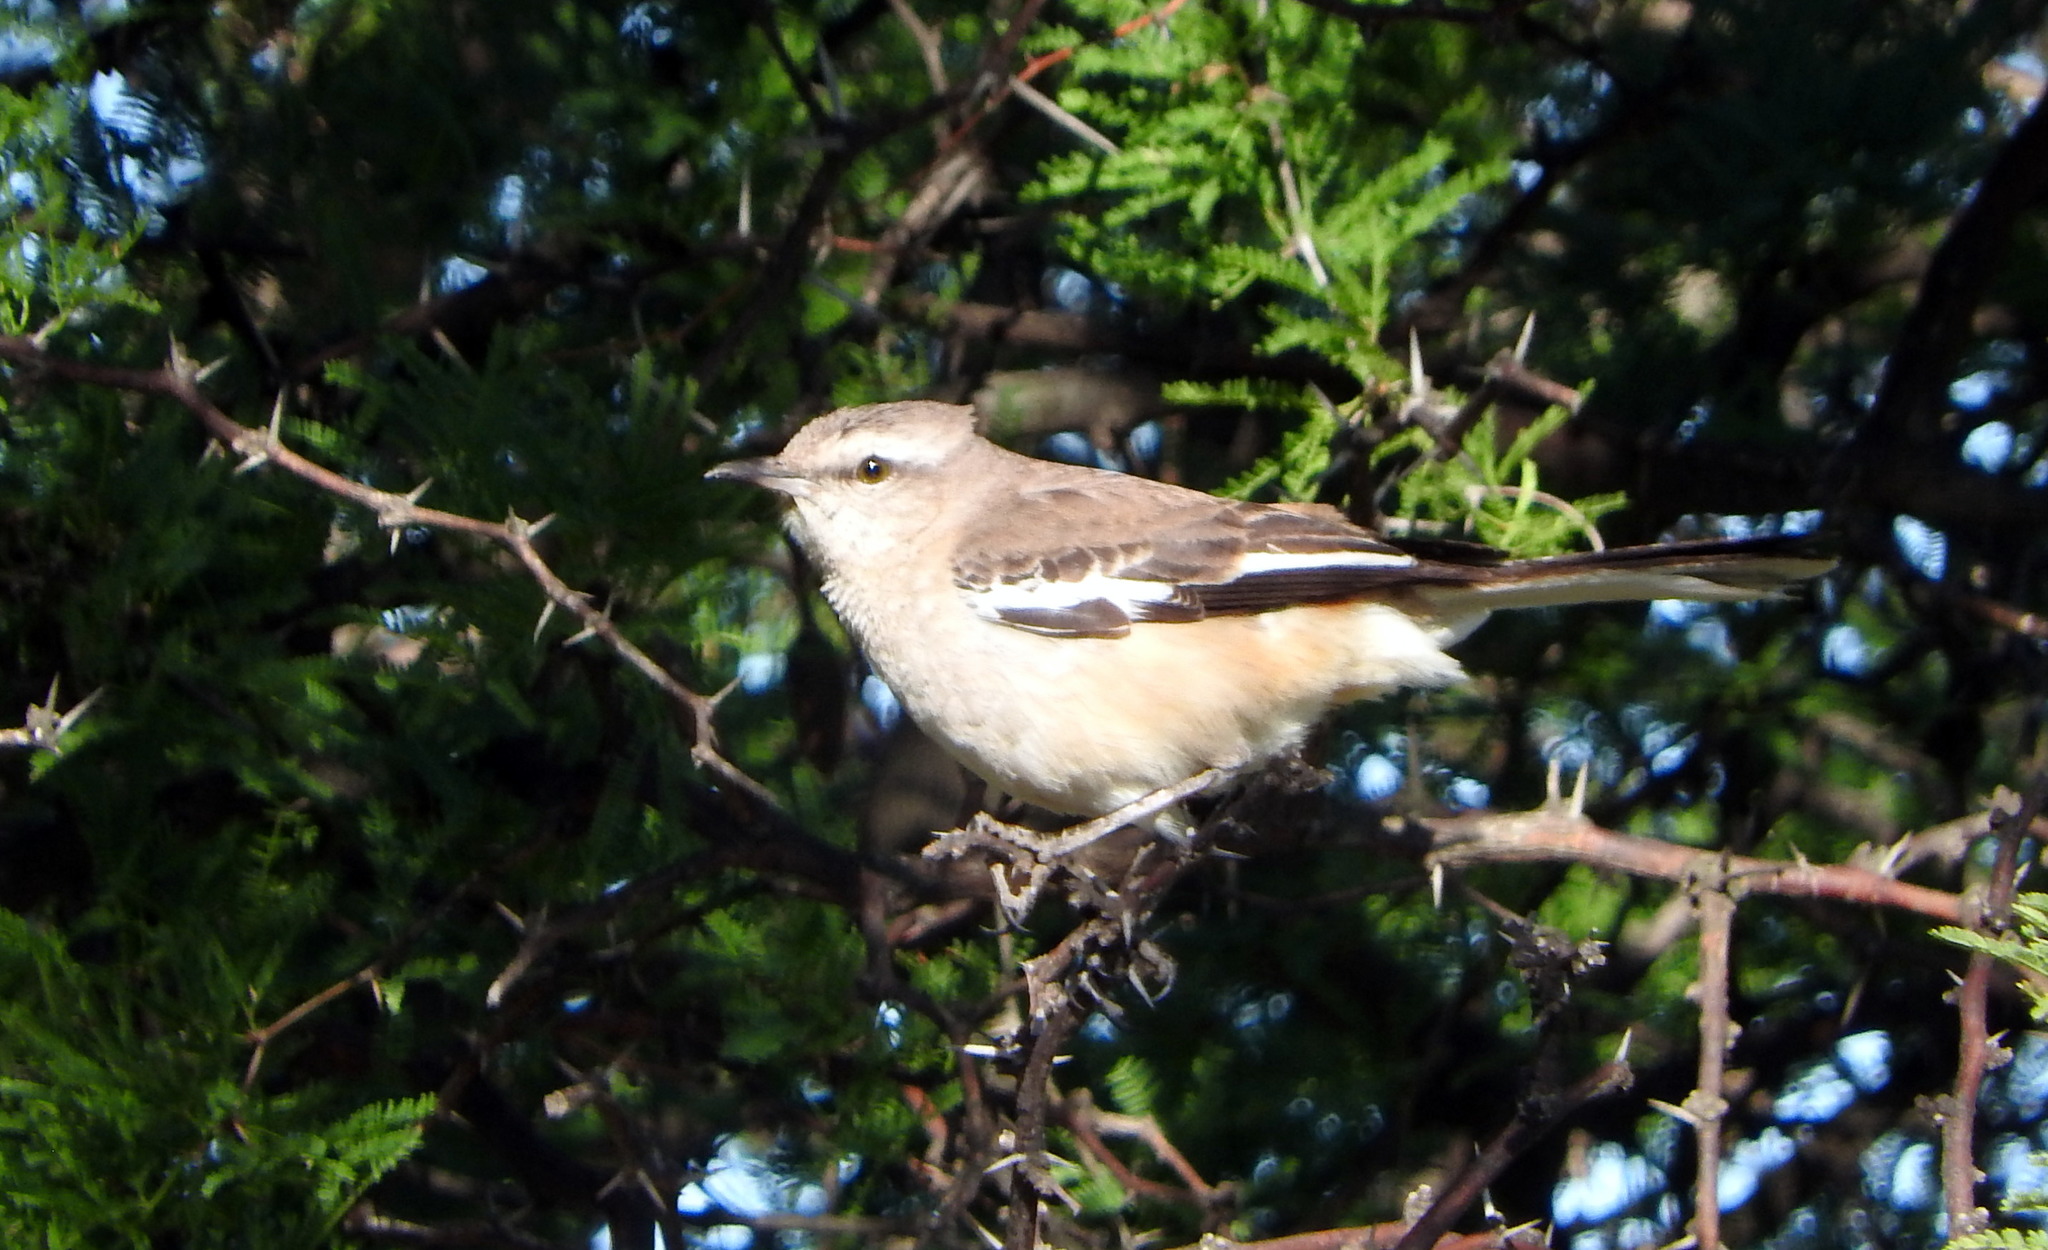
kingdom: Animalia
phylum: Chordata
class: Aves
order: Passeriformes
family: Mimidae
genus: Mimus
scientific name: Mimus triurus
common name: White-banded mockingbird
